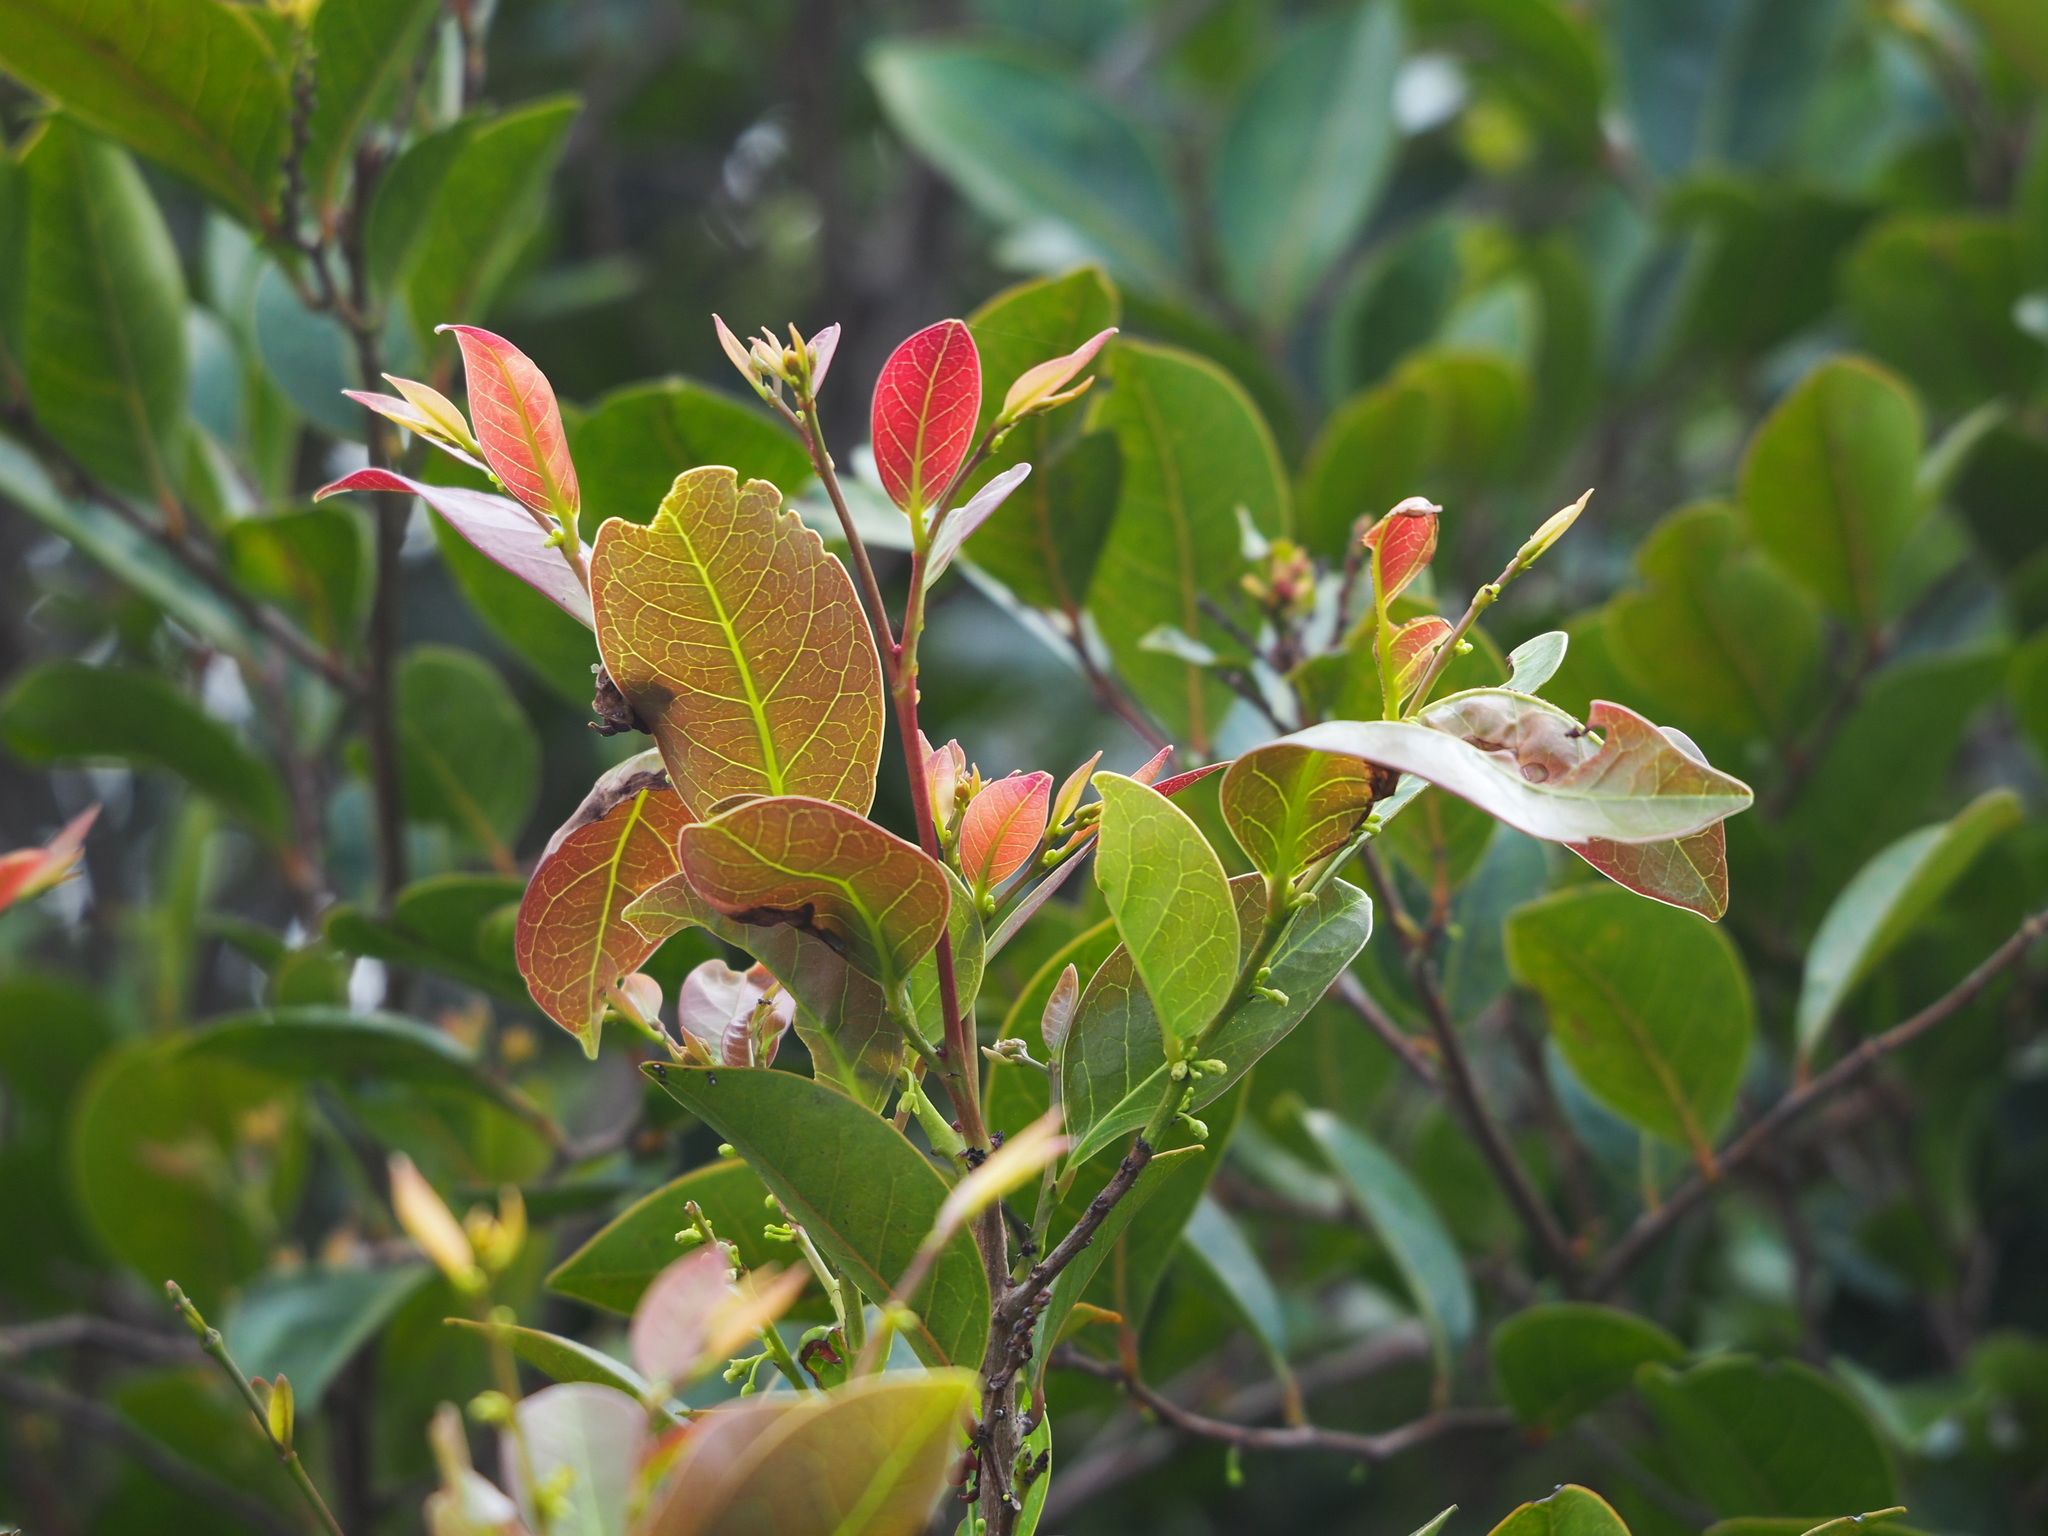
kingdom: Plantae
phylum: Tracheophyta
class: Magnoliopsida
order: Malpighiales
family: Phyllanthaceae
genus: Glochidion
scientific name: Glochidion rubrum
